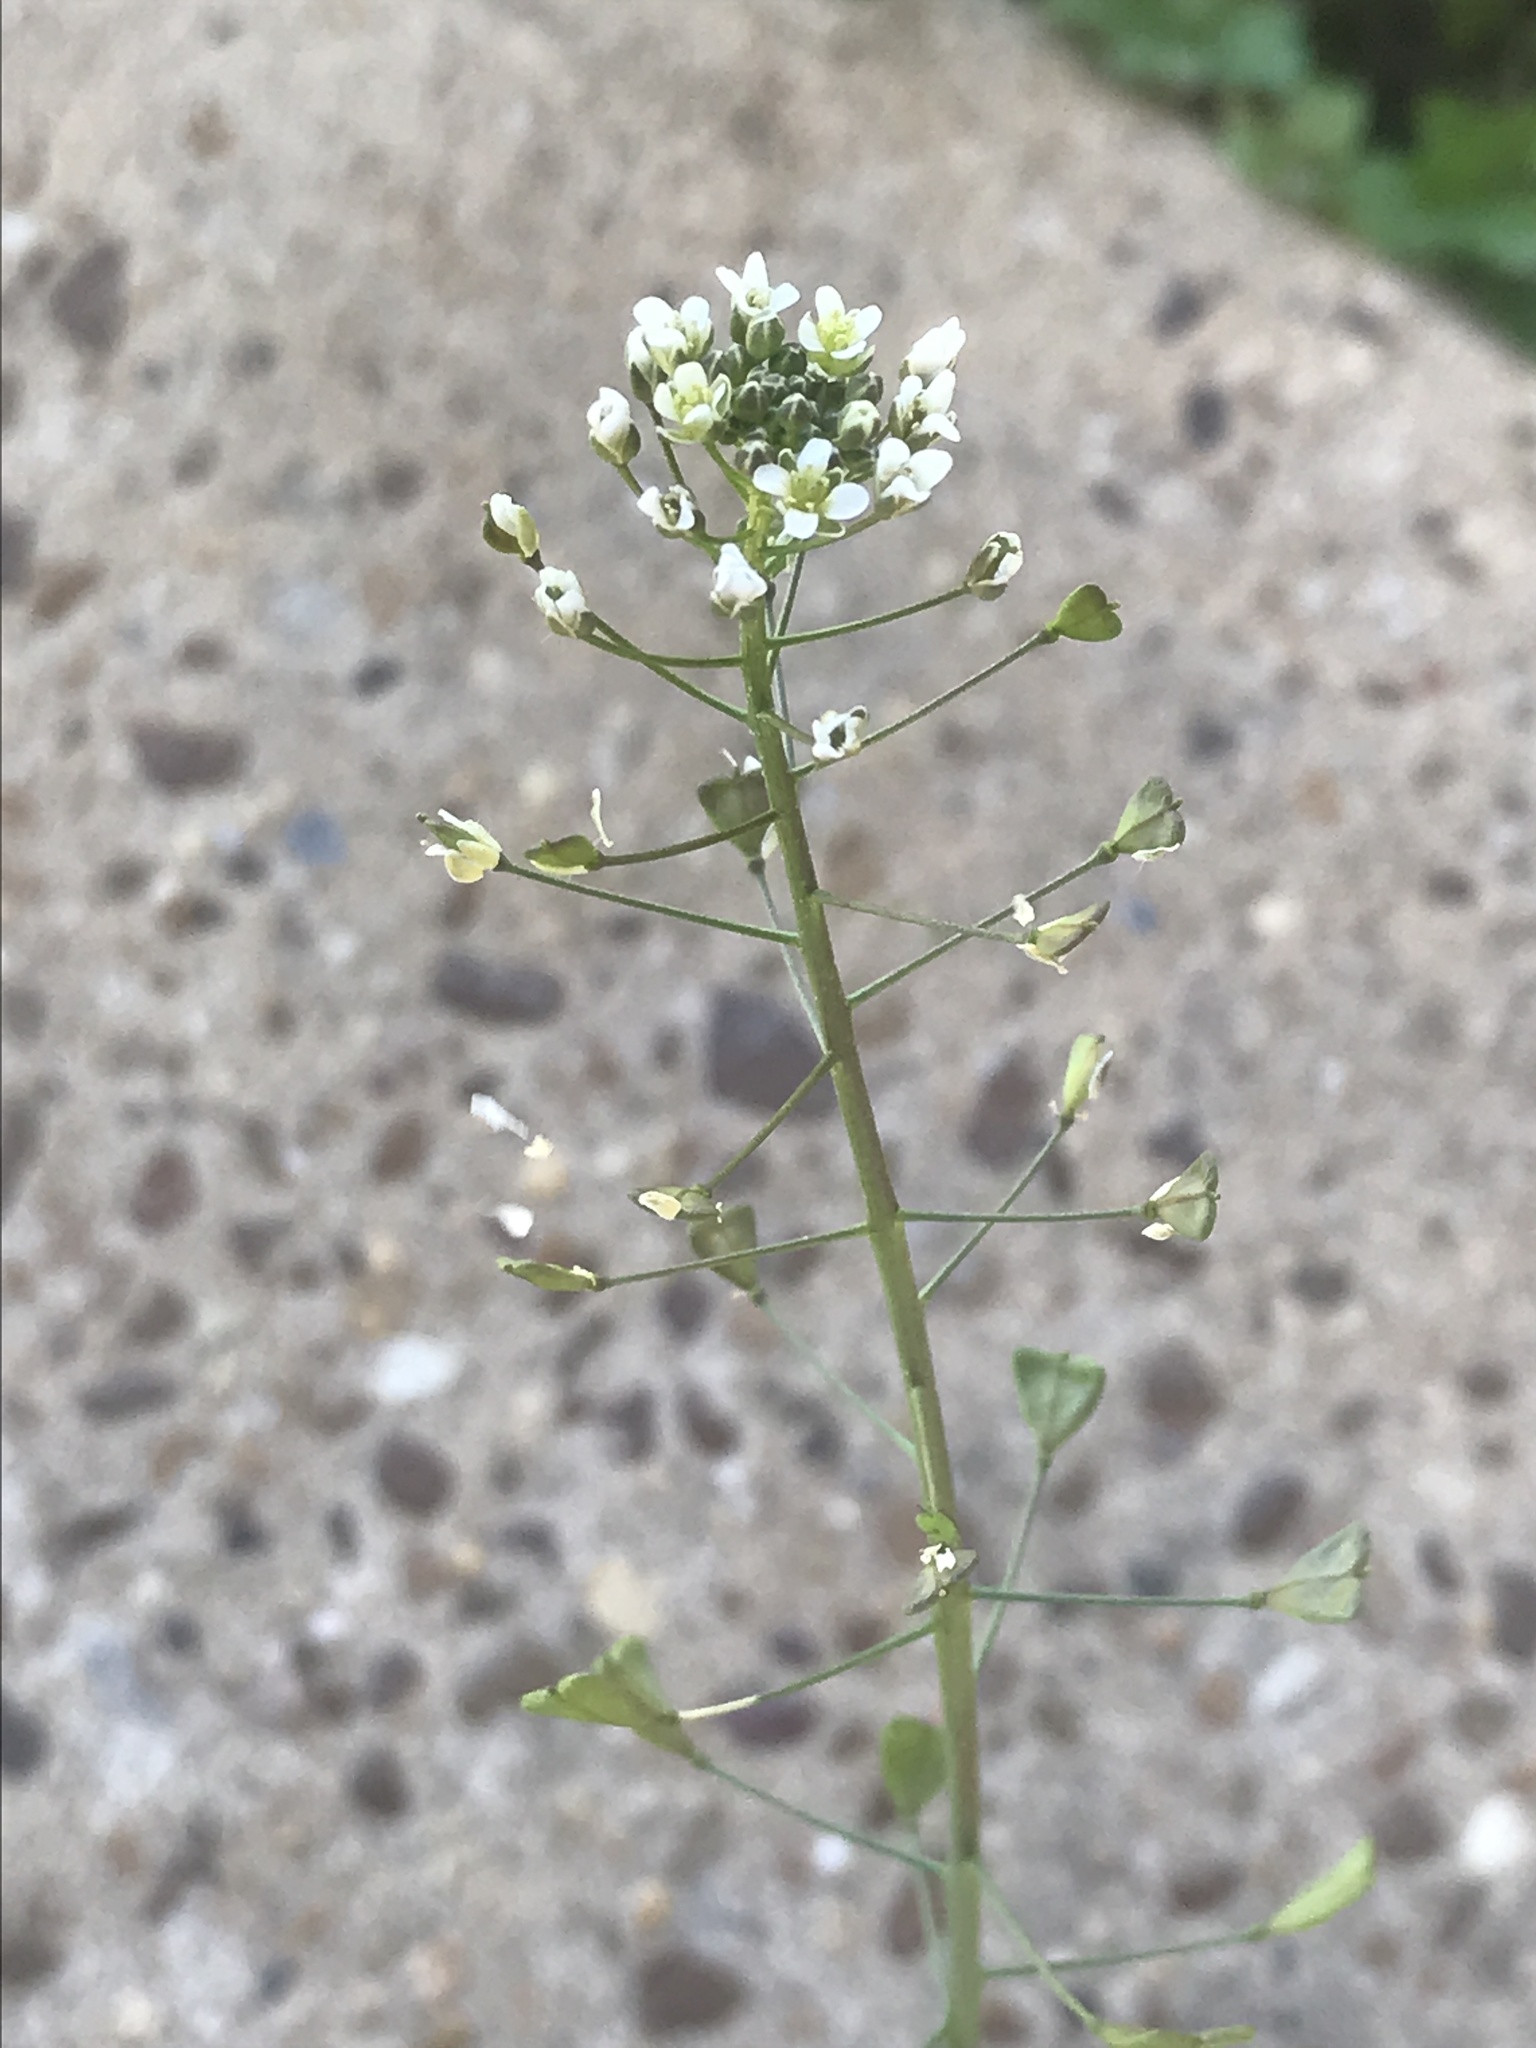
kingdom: Plantae
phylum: Tracheophyta
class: Magnoliopsida
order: Brassicales
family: Brassicaceae
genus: Capsella
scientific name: Capsella bursa-pastoris
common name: Shepherd's purse
